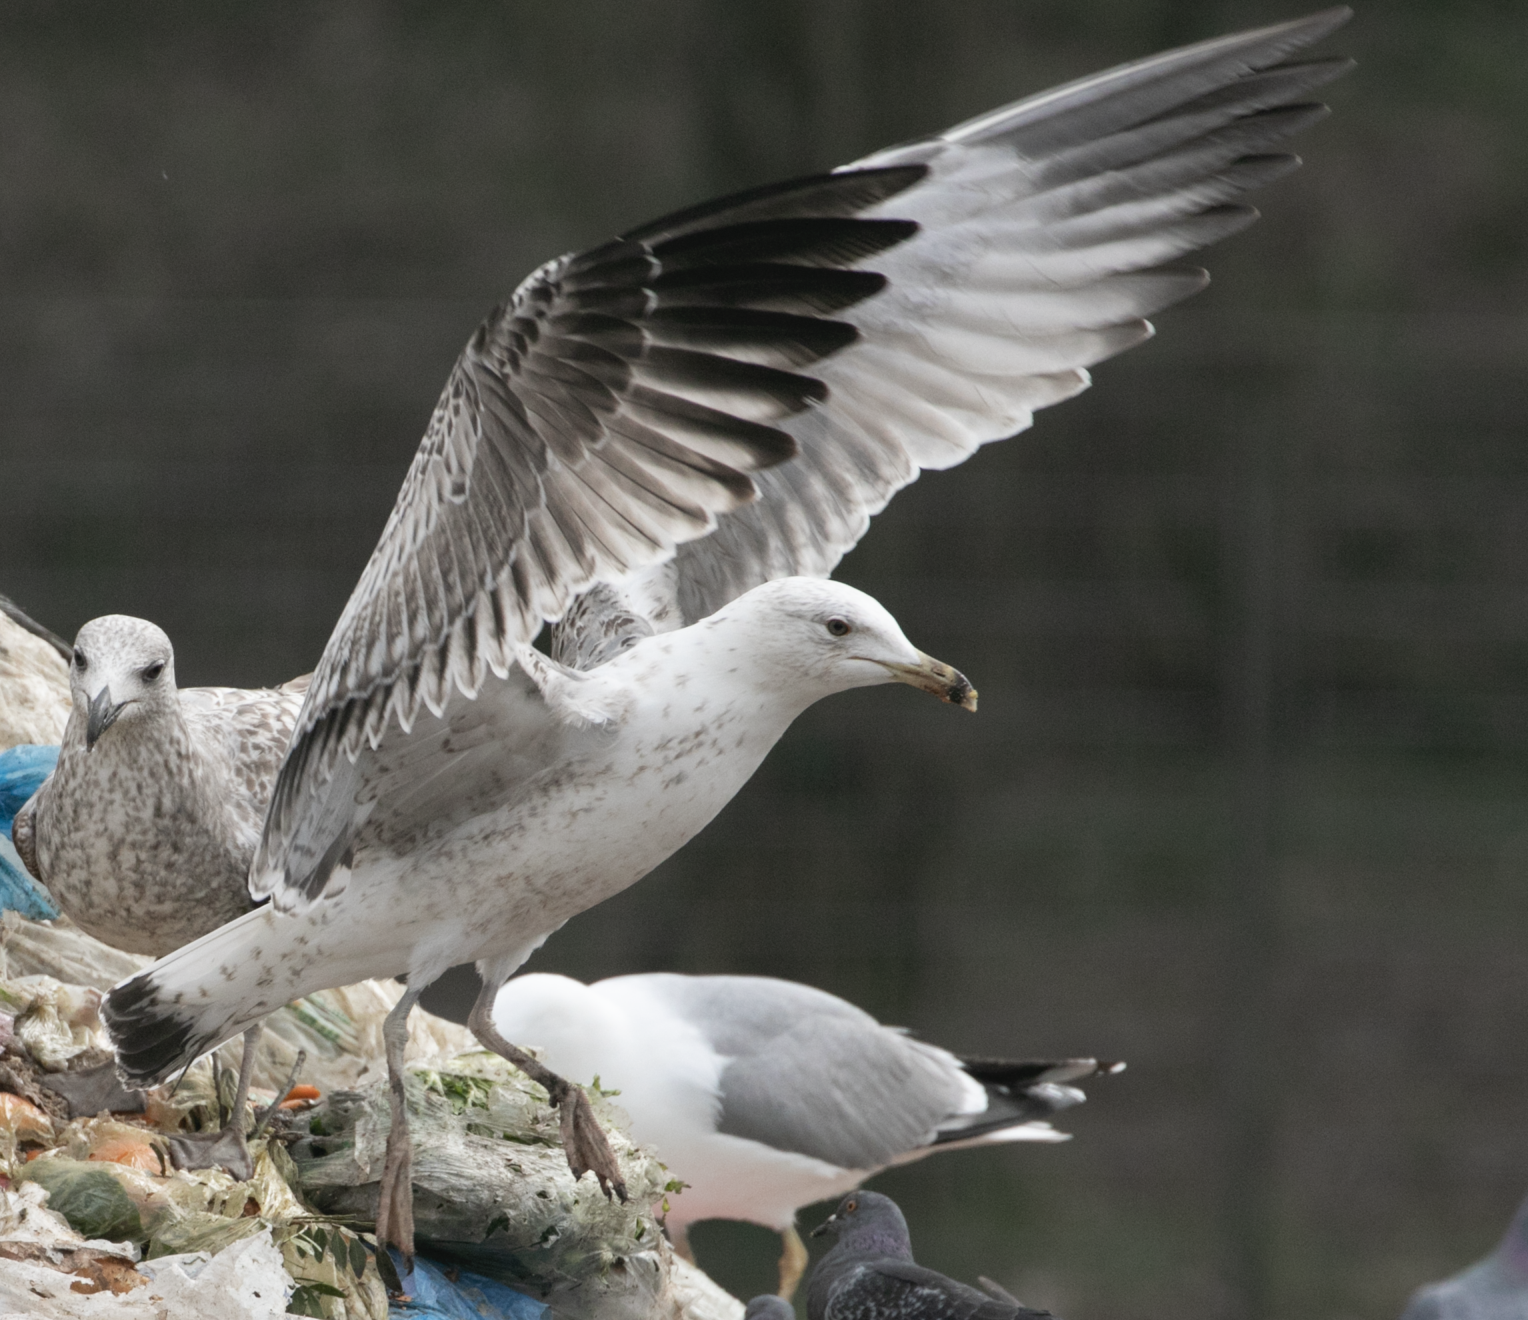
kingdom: Animalia
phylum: Chordata
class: Aves
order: Charadriiformes
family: Laridae
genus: Larus
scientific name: Larus michahellis
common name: Yellow-legged gull
